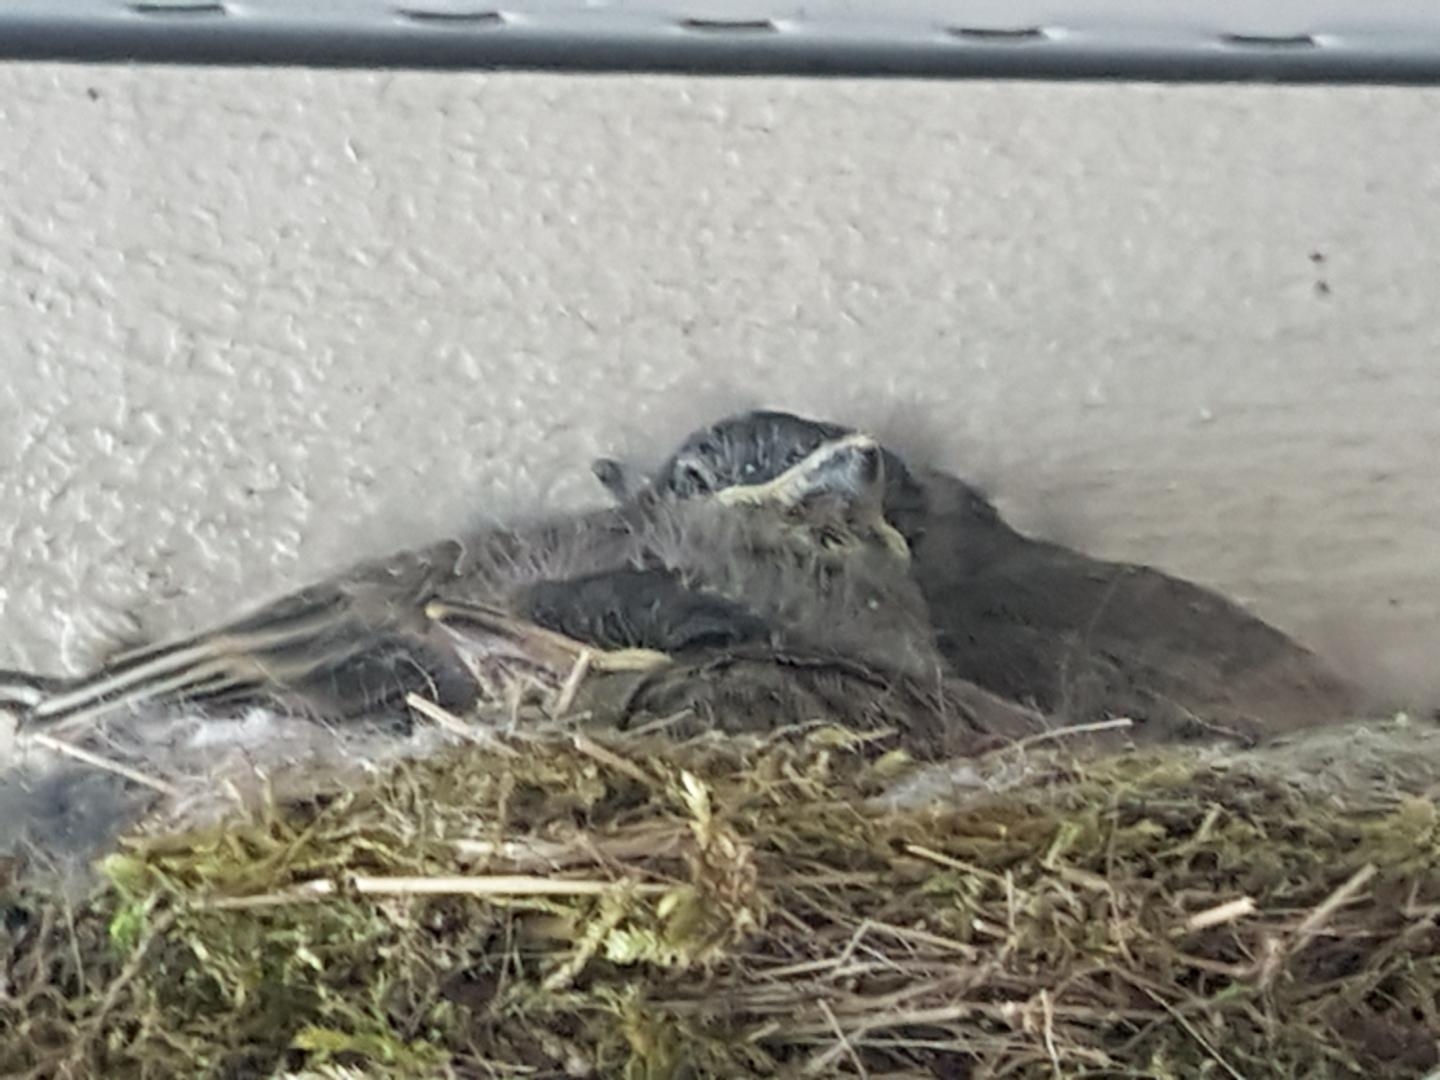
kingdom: Animalia
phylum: Chordata
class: Aves
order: Passeriformes
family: Tyrannidae
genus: Sayornis
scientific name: Sayornis phoebe
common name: Eastern phoebe
